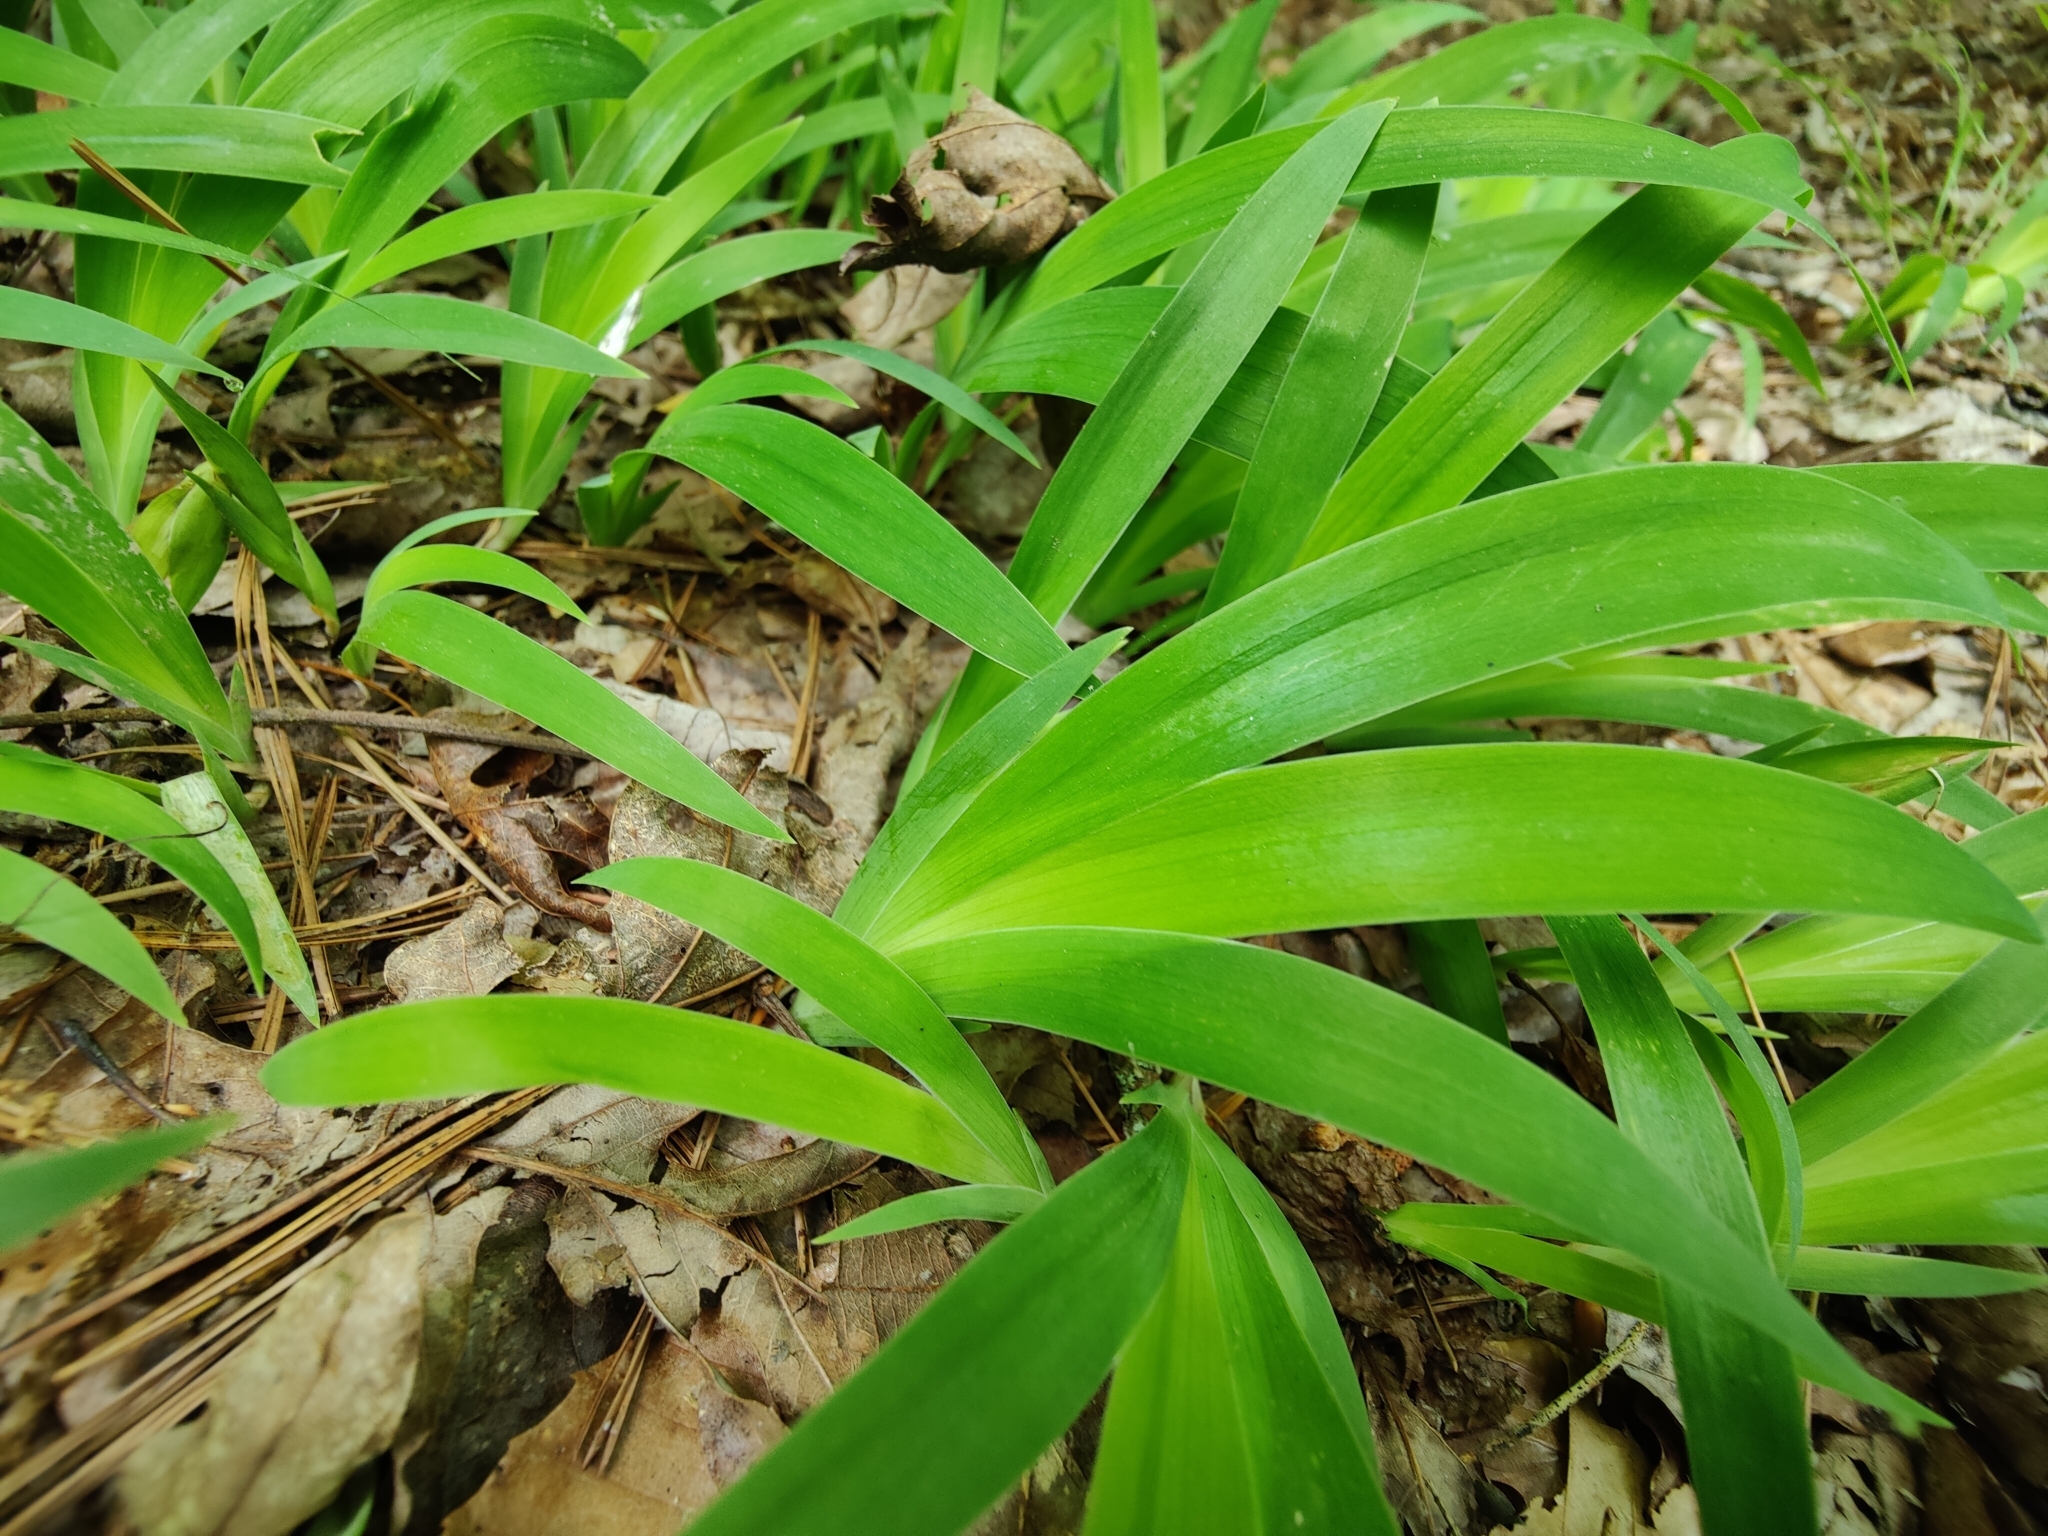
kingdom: Plantae
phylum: Tracheophyta
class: Liliopsida
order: Asparagales
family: Iridaceae
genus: Iris
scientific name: Iris cristata
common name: Crested iris
